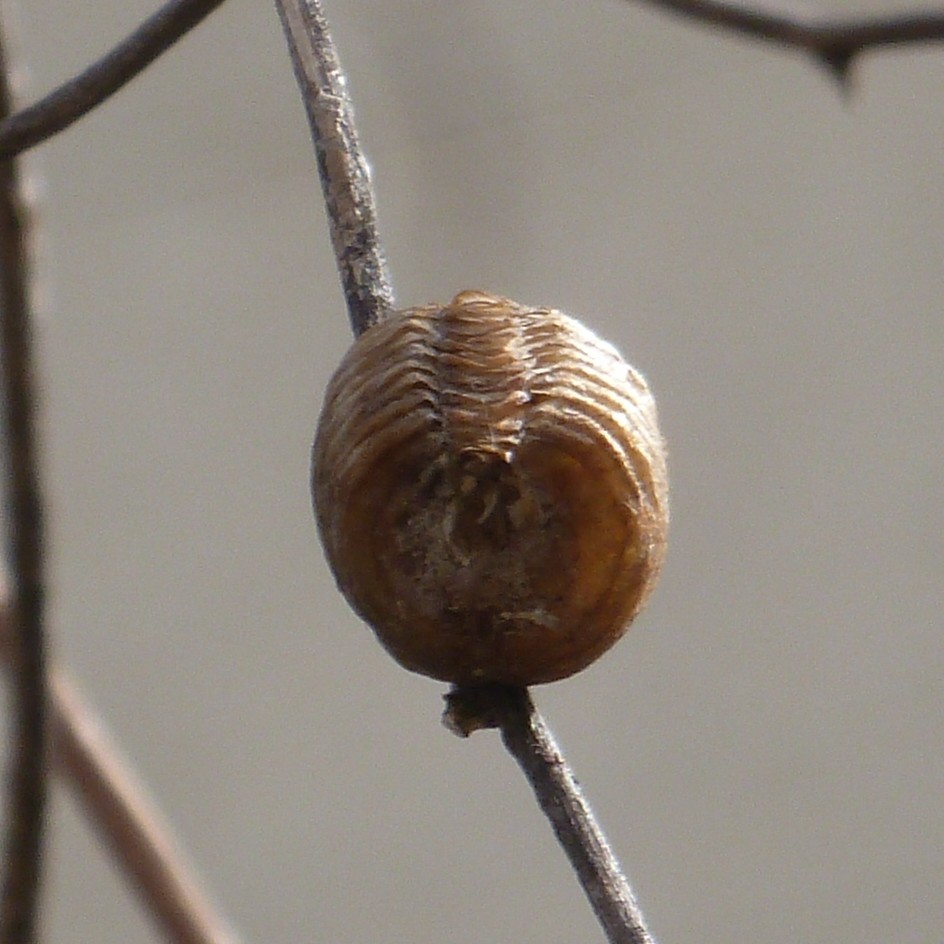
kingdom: Animalia
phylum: Arthropoda
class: Insecta
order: Mantodea
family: Mantidae
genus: Hierodula
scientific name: Hierodula transcaucasica
